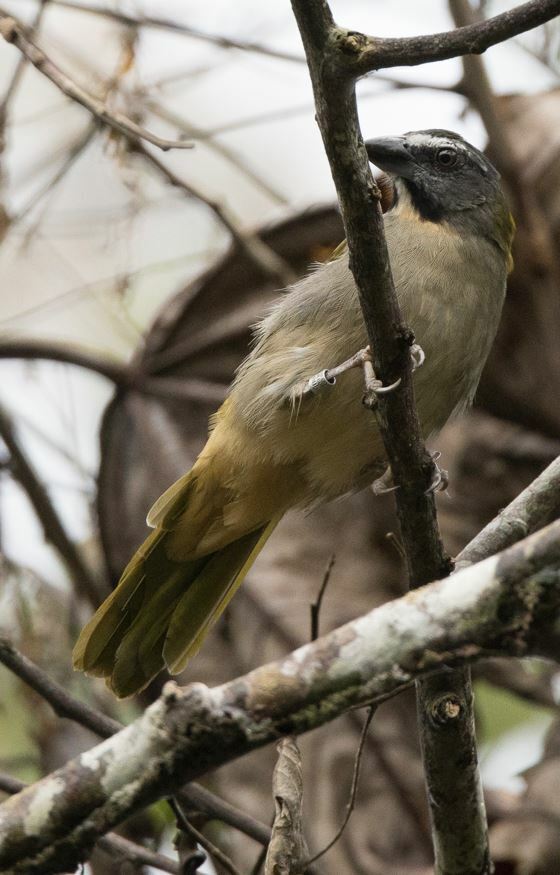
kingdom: Animalia
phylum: Chordata
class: Aves
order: Passeriformes
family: Thraupidae
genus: Saltator
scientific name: Saltator maximus
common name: Buff-throated saltator
